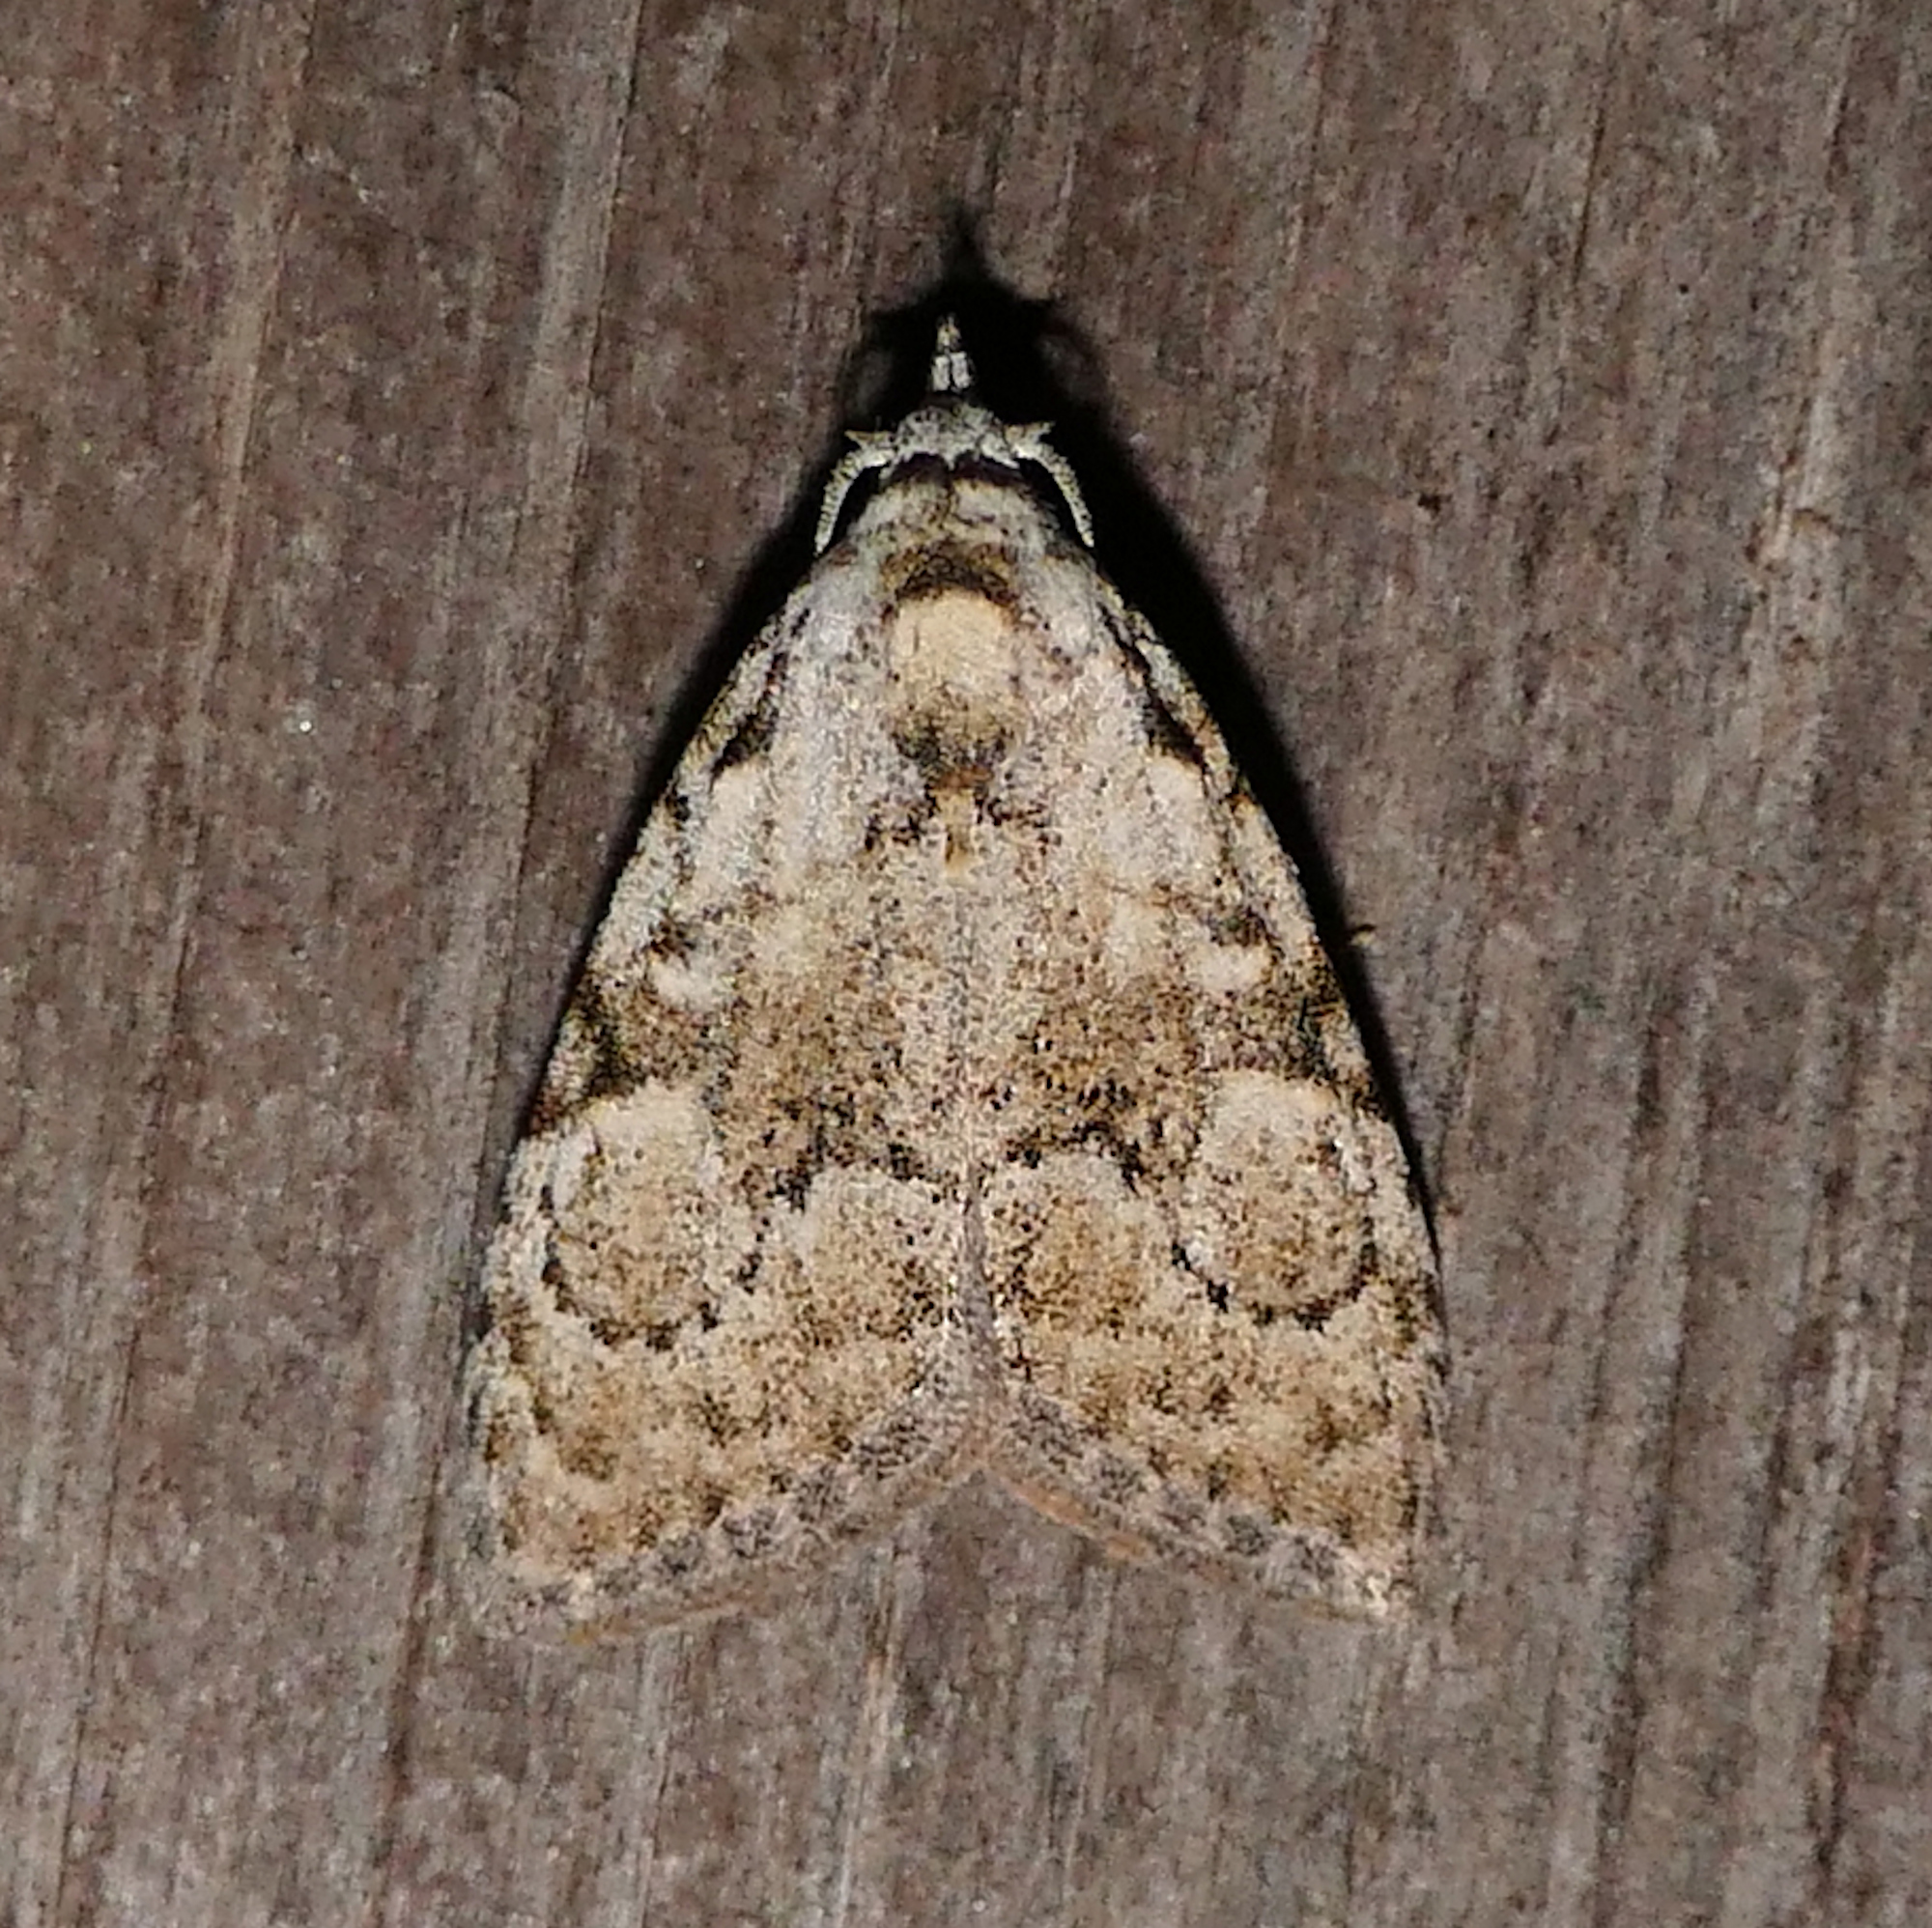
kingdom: Animalia
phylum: Arthropoda
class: Insecta
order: Lepidoptera
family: Nolidae
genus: Meganola
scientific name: Meganola minuscula
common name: Confused meganola moth
